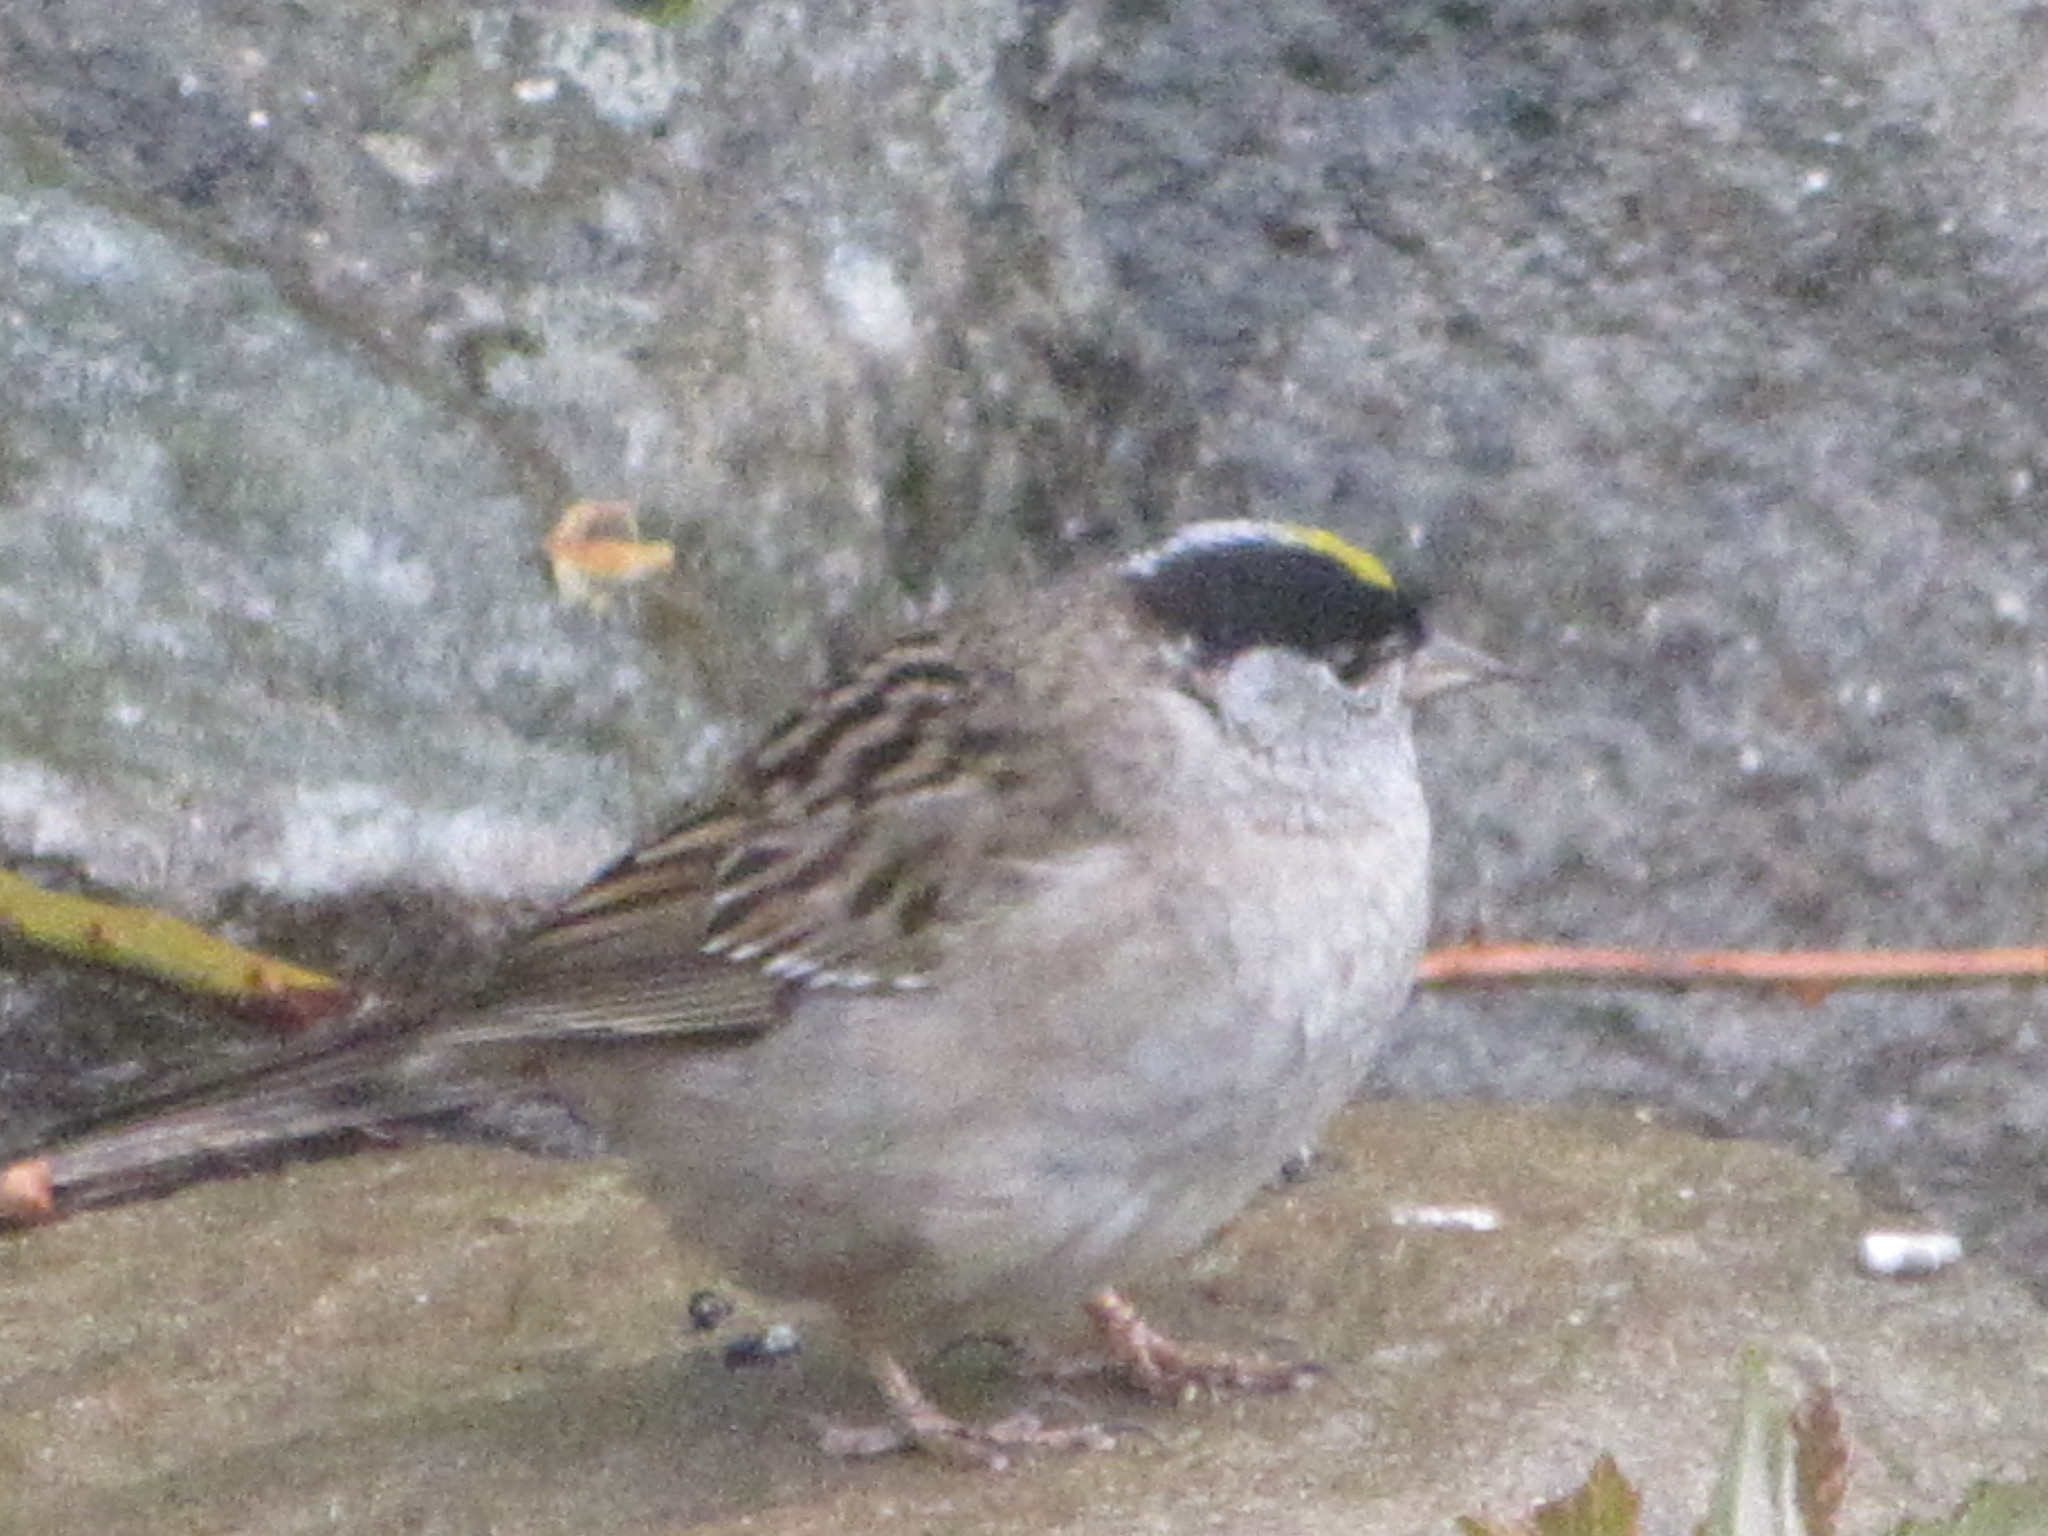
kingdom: Animalia
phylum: Chordata
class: Aves
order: Passeriformes
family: Passerellidae
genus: Zonotrichia
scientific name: Zonotrichia atricapilla
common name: Golden-crowned sparrow
